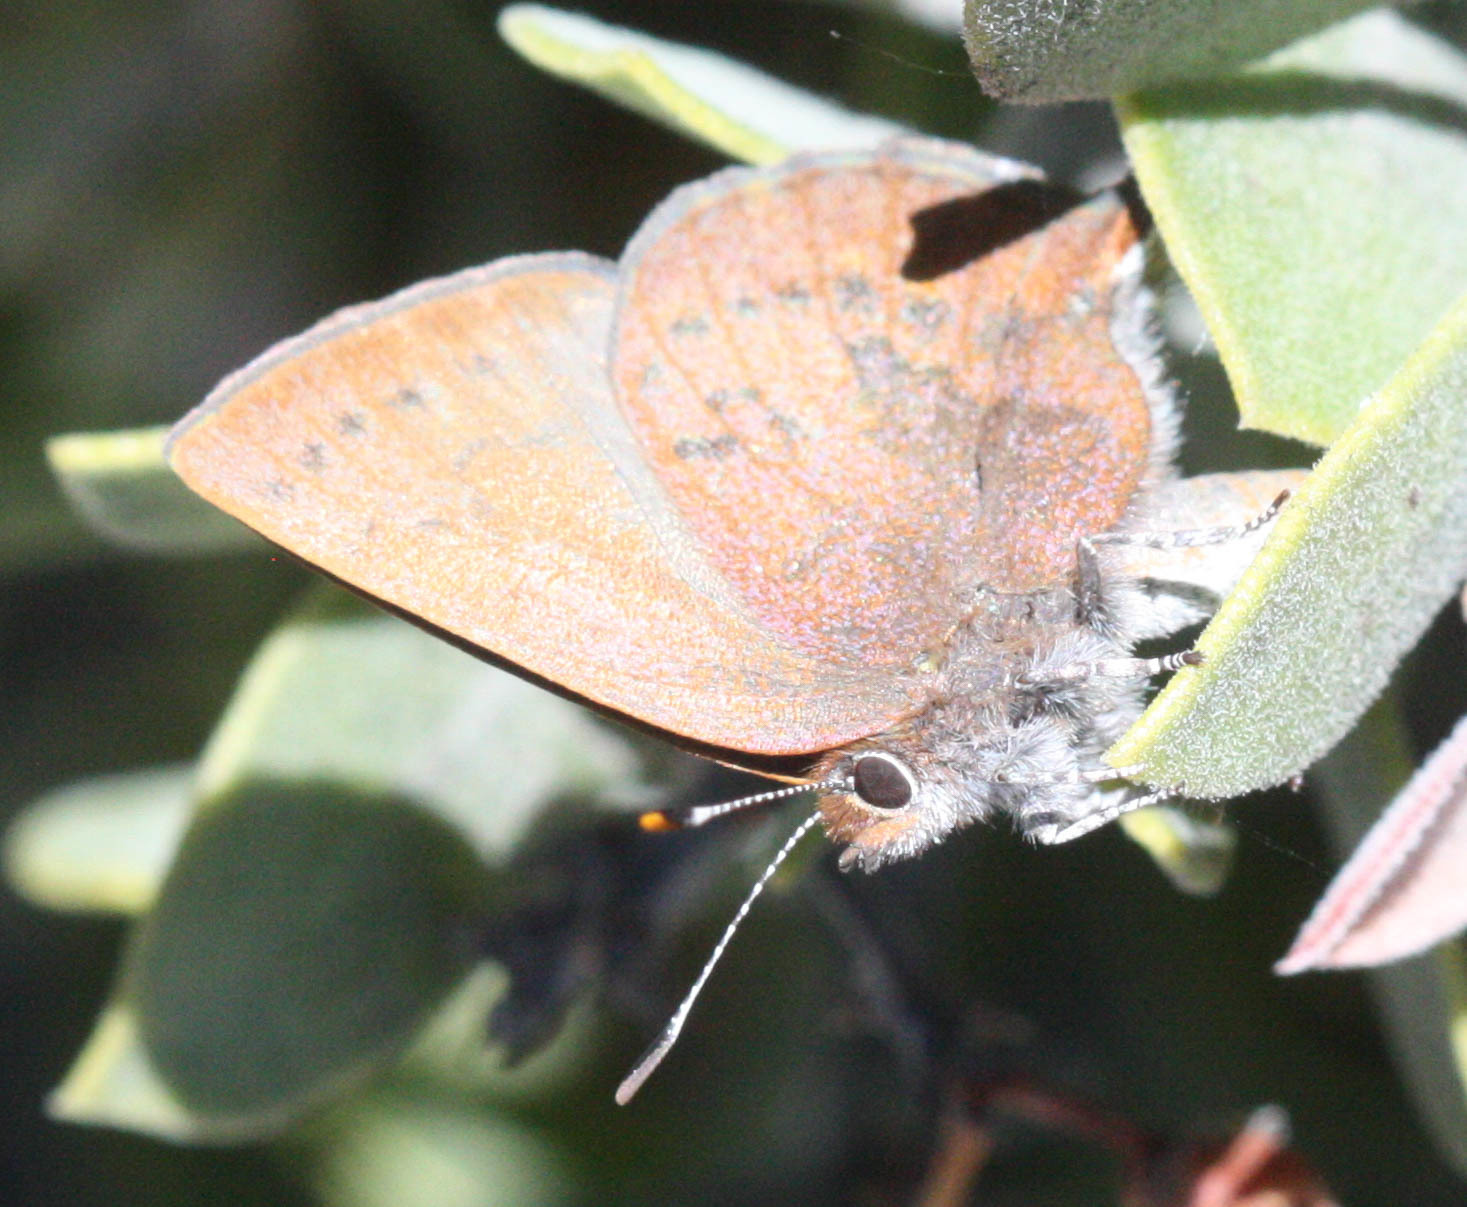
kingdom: Animalia
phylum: Arthropoda
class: Insecta
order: Lepidoptera
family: Lycaenidae
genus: Incisalia
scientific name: Incisalia irioides
